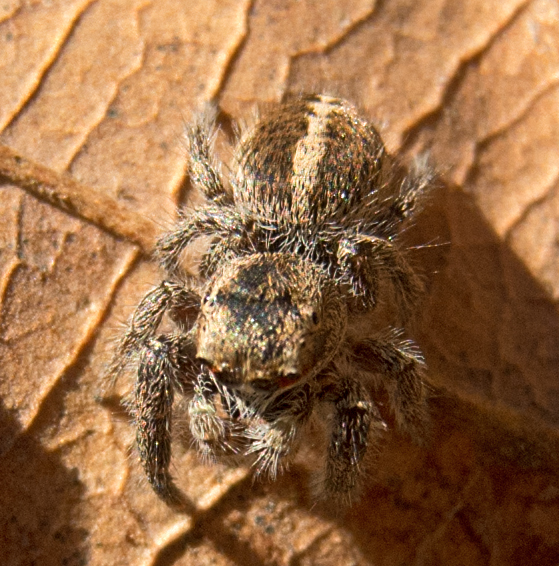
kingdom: Animalia
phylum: Arthropoda
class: Arachnida
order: Araneae
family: Salticidae
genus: Pellenes
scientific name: Pellenes seriatus
